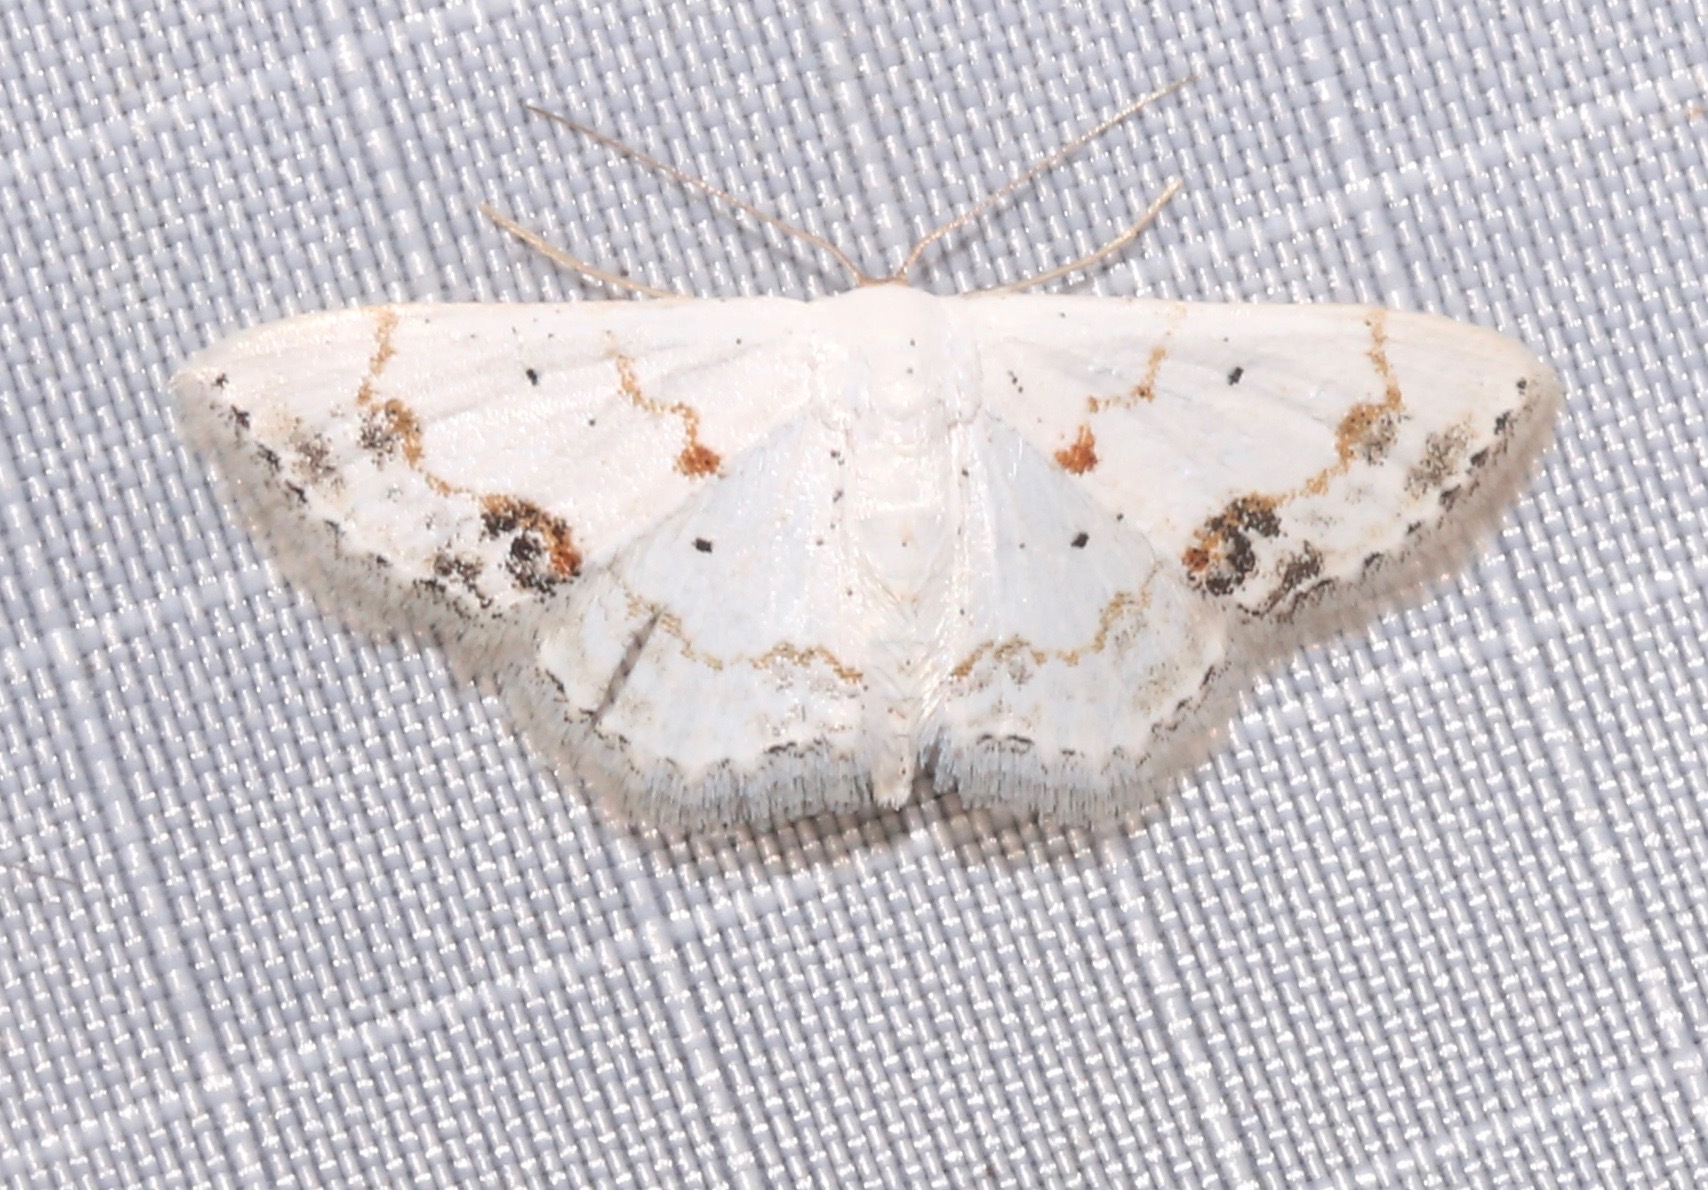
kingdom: Animalia
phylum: Arthropoda
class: Insecta
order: Lepidoptera
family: Geometridae
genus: Scopula
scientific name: Scopula lautaria
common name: Small frosted wave moth
